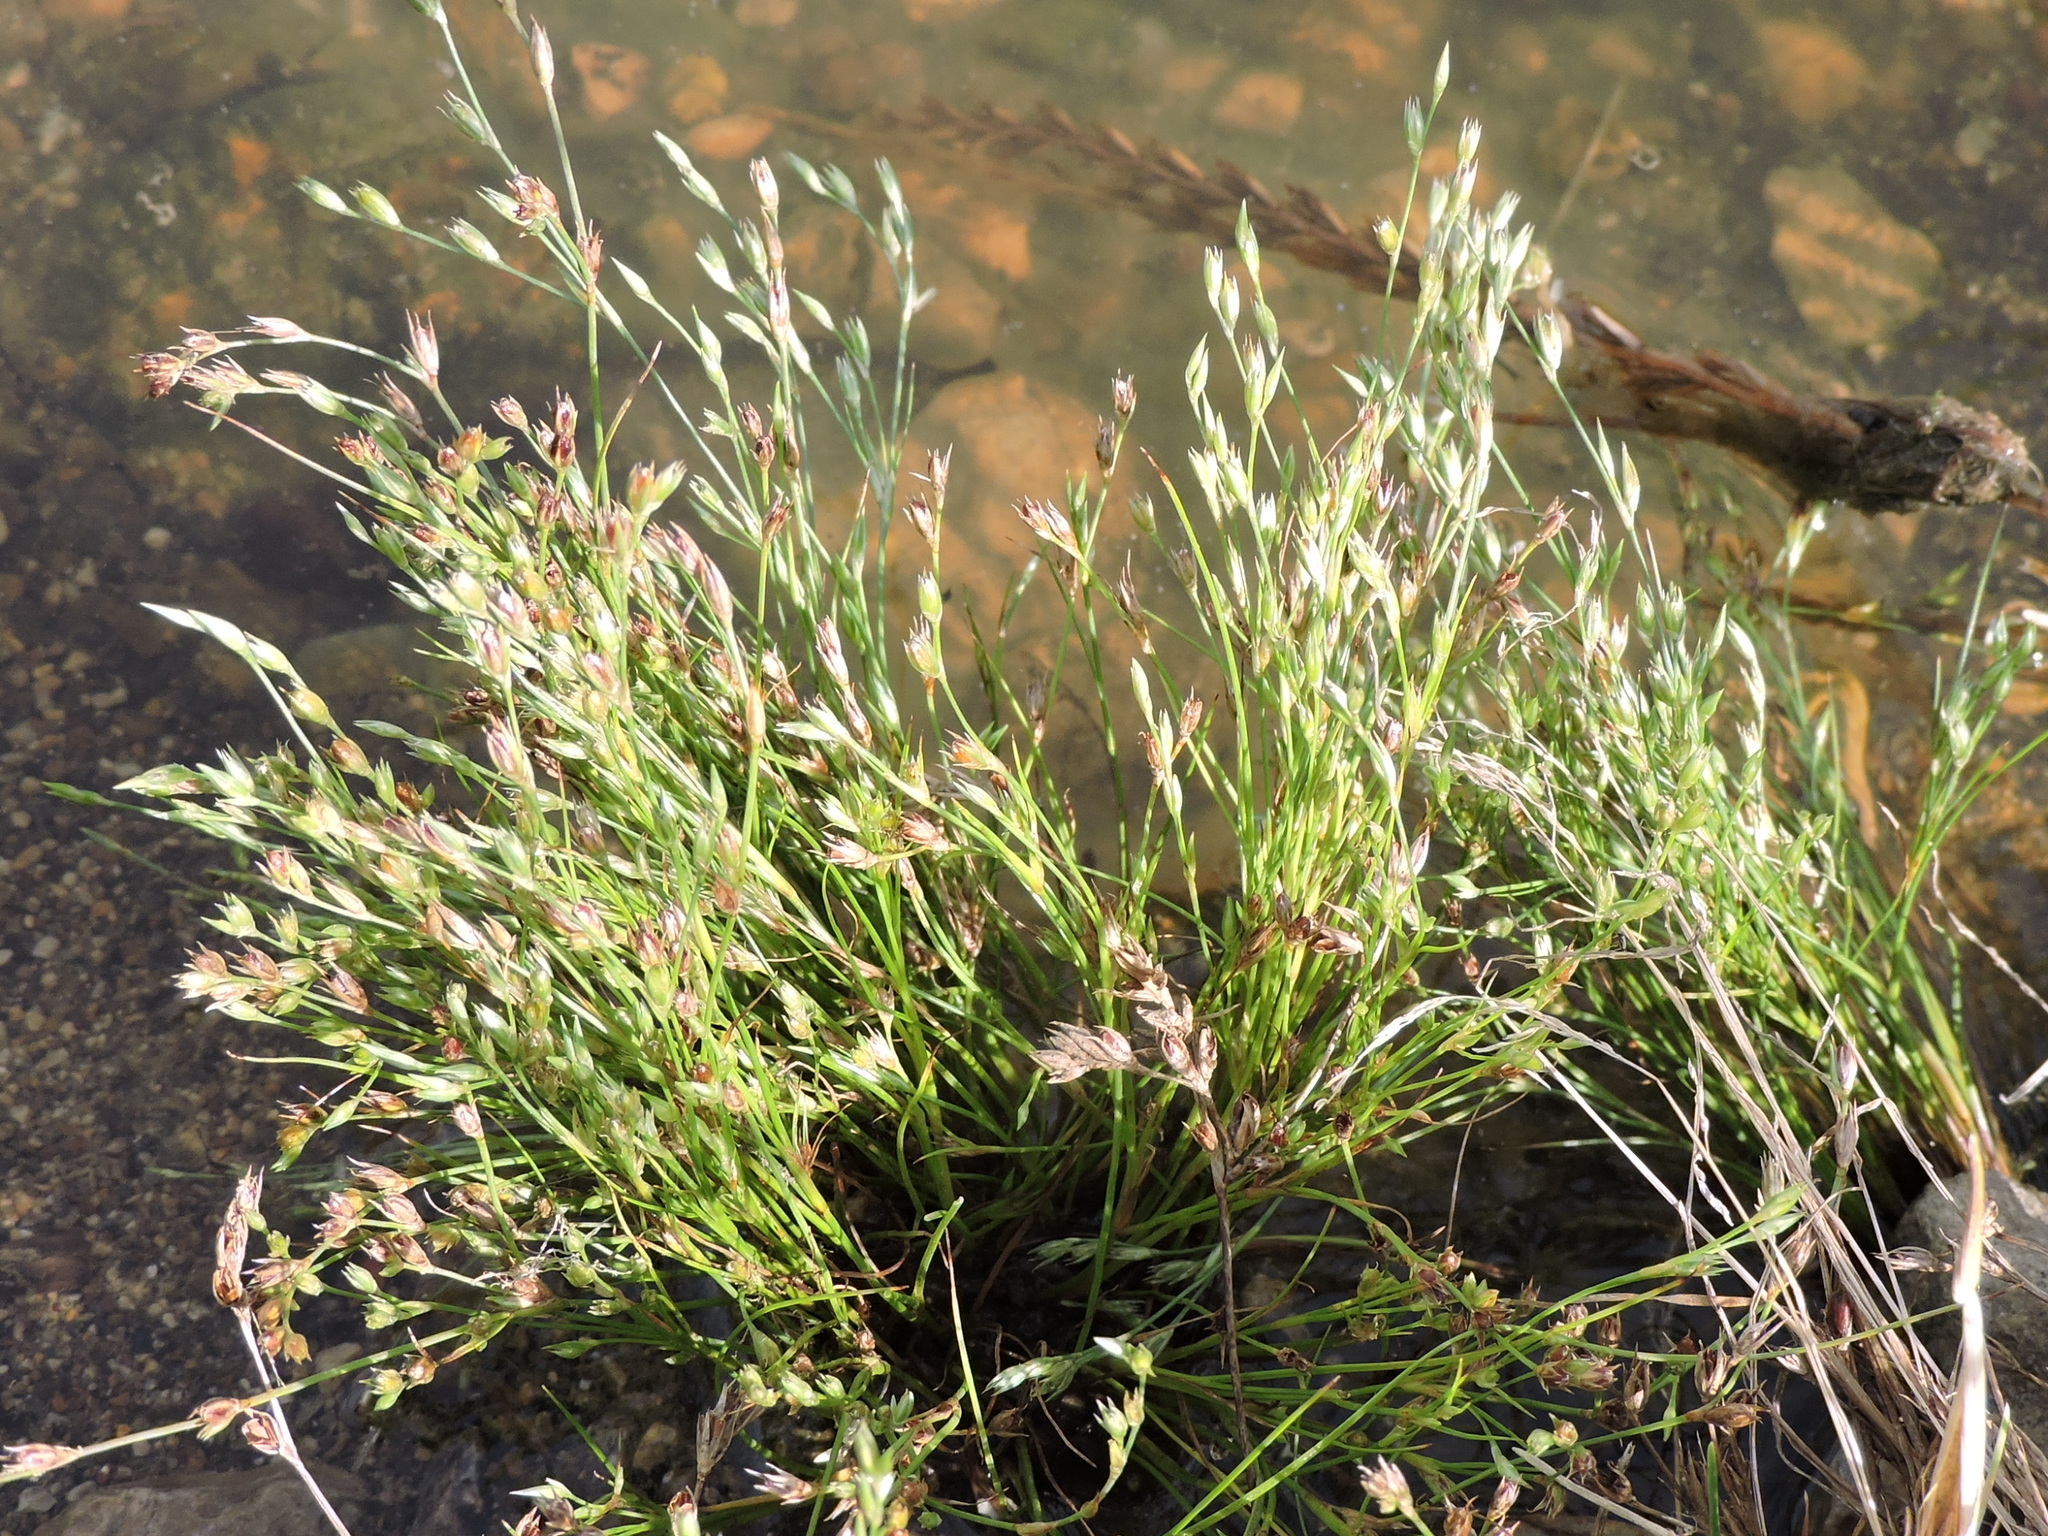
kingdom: Plantae
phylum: Tracheophyta
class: Liliopsida
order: Poales
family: Juncaceae
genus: Juncus
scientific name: Juncus bufonius
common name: Toad rush
